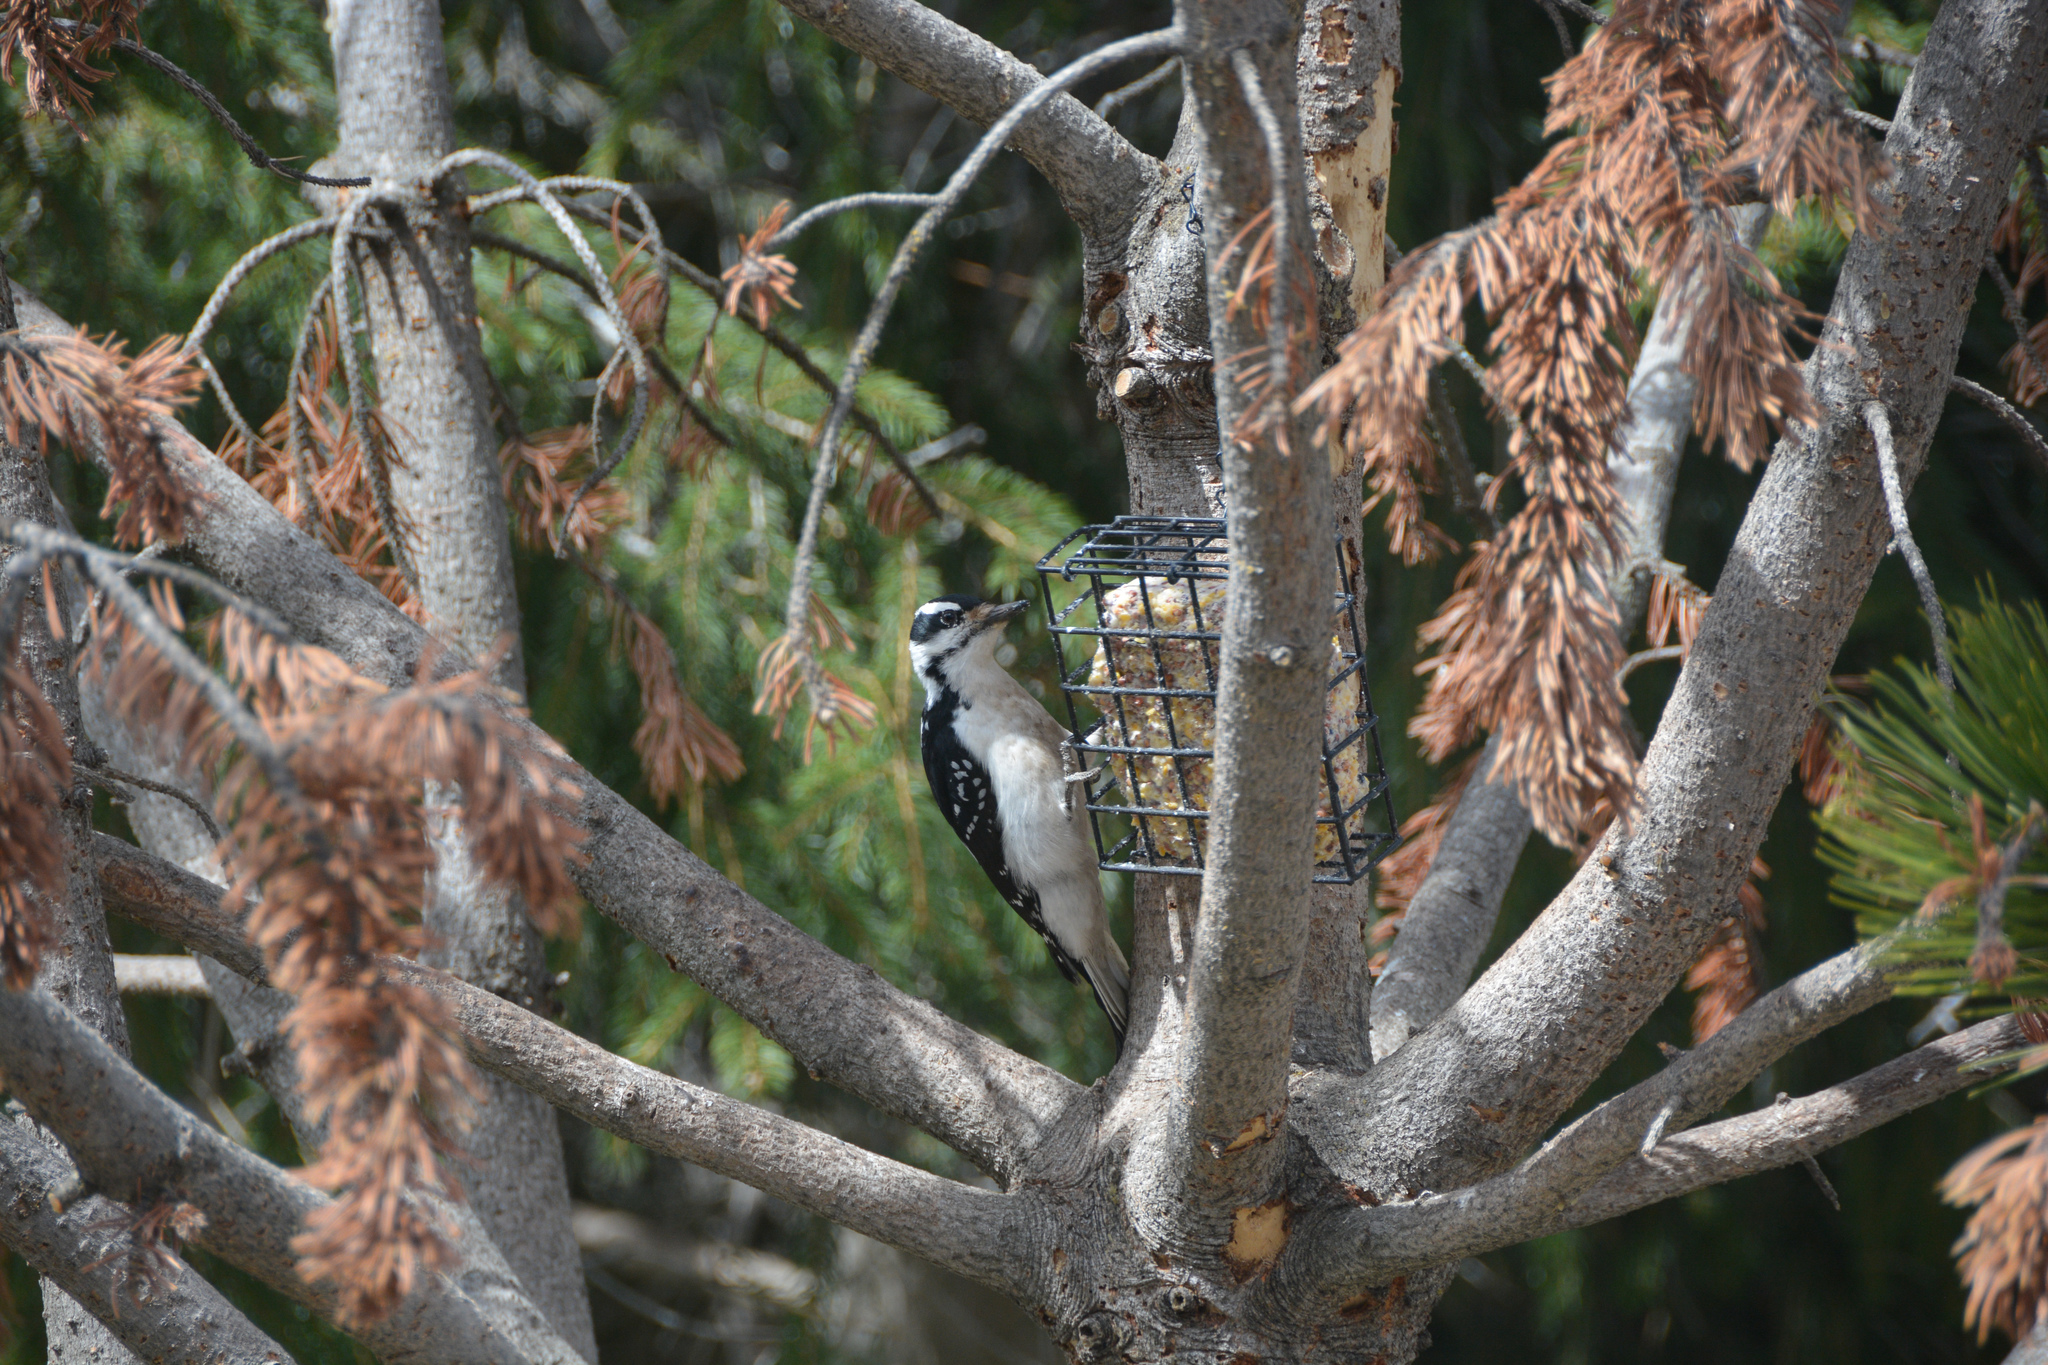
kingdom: Animalia
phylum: Chordata
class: Aves
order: Piciformes
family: Picidae
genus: Leuconotopicus
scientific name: Leuconotopicus villosus
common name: Hairy woodpecker
